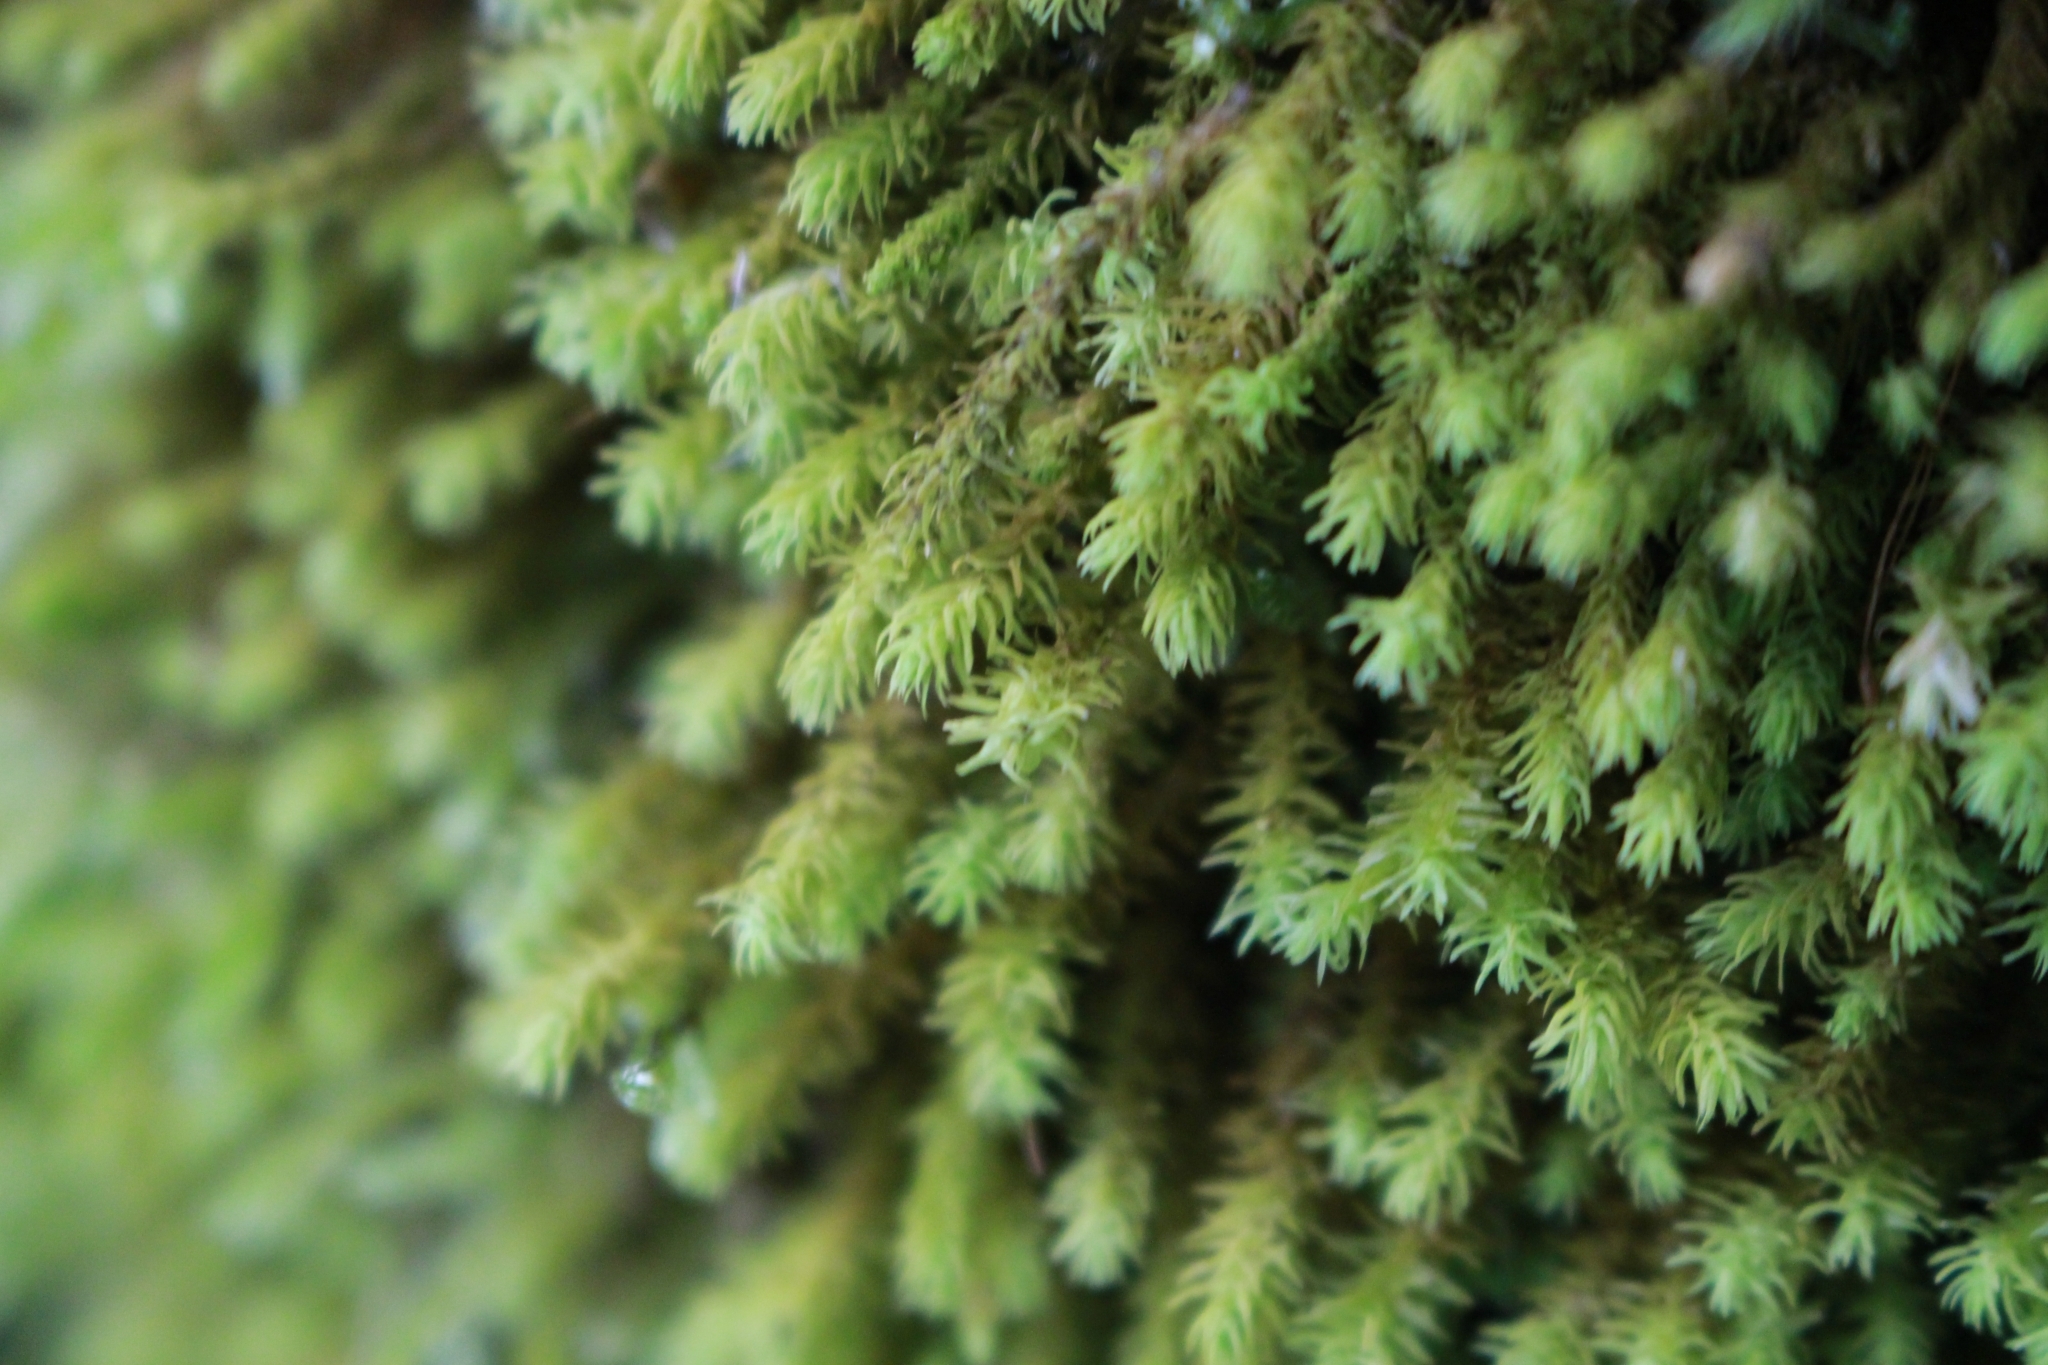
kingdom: Plantae
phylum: Bryophyta
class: Bryopsida
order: Hypnales
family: Anomodontaceae
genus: Anomodon
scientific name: Anomodon viticulosus
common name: Tall anomodon
